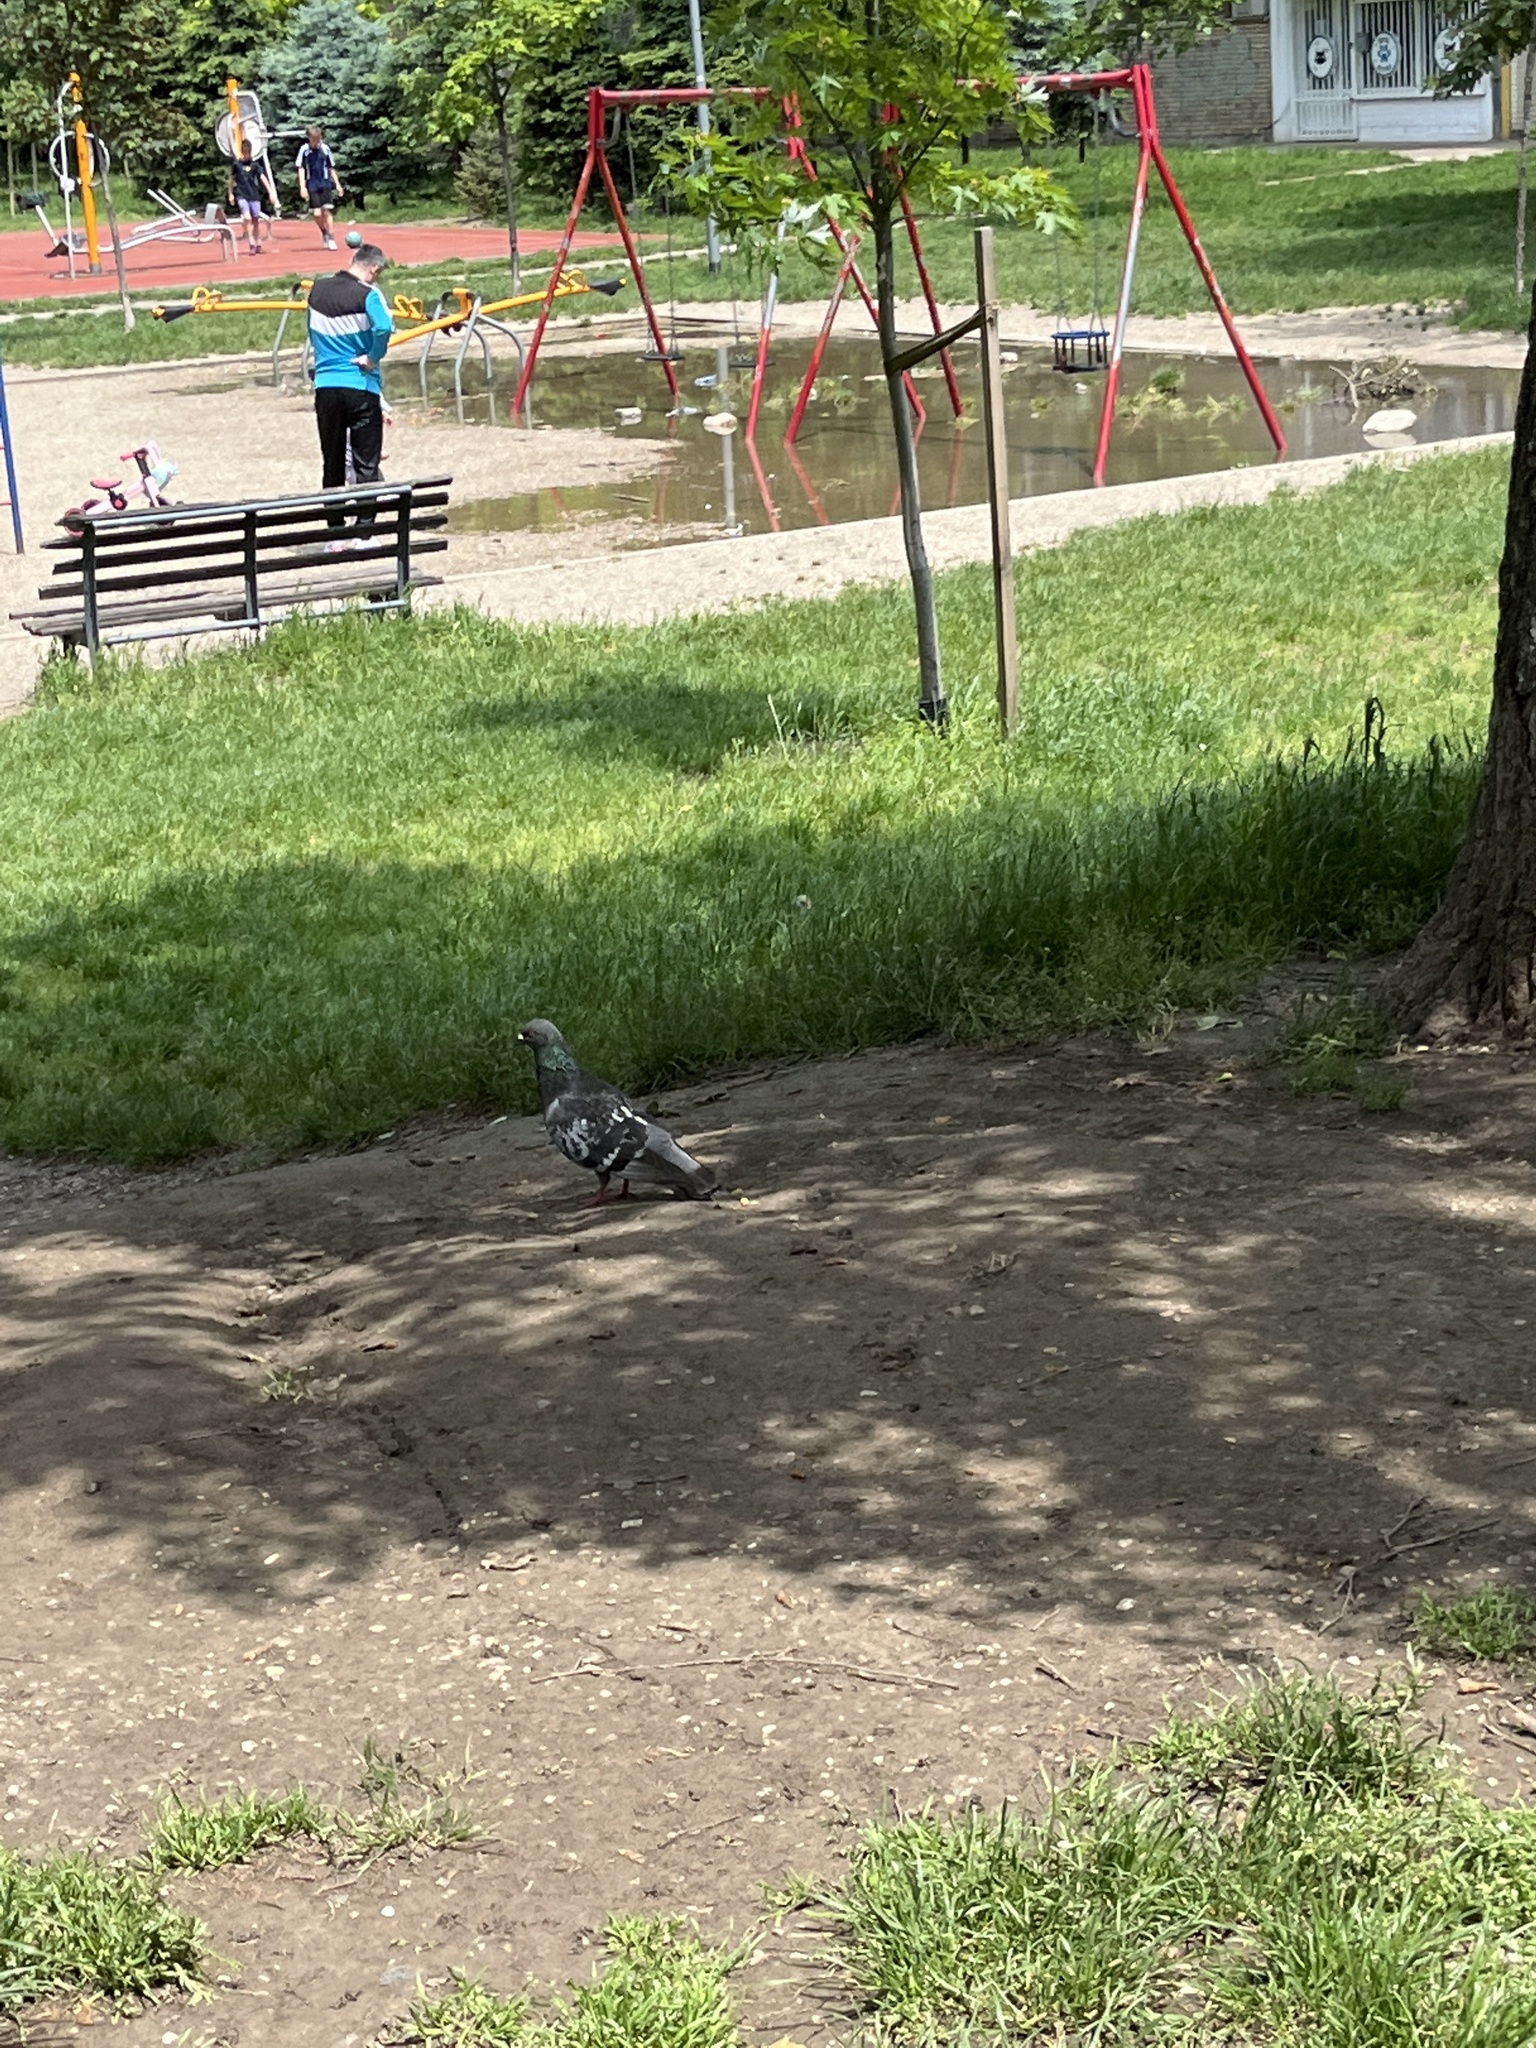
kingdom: Animalia
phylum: Chordata
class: Aves
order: Columbiformes
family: Columbidae
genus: Columba
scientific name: Columba livia
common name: Rock pigeon
